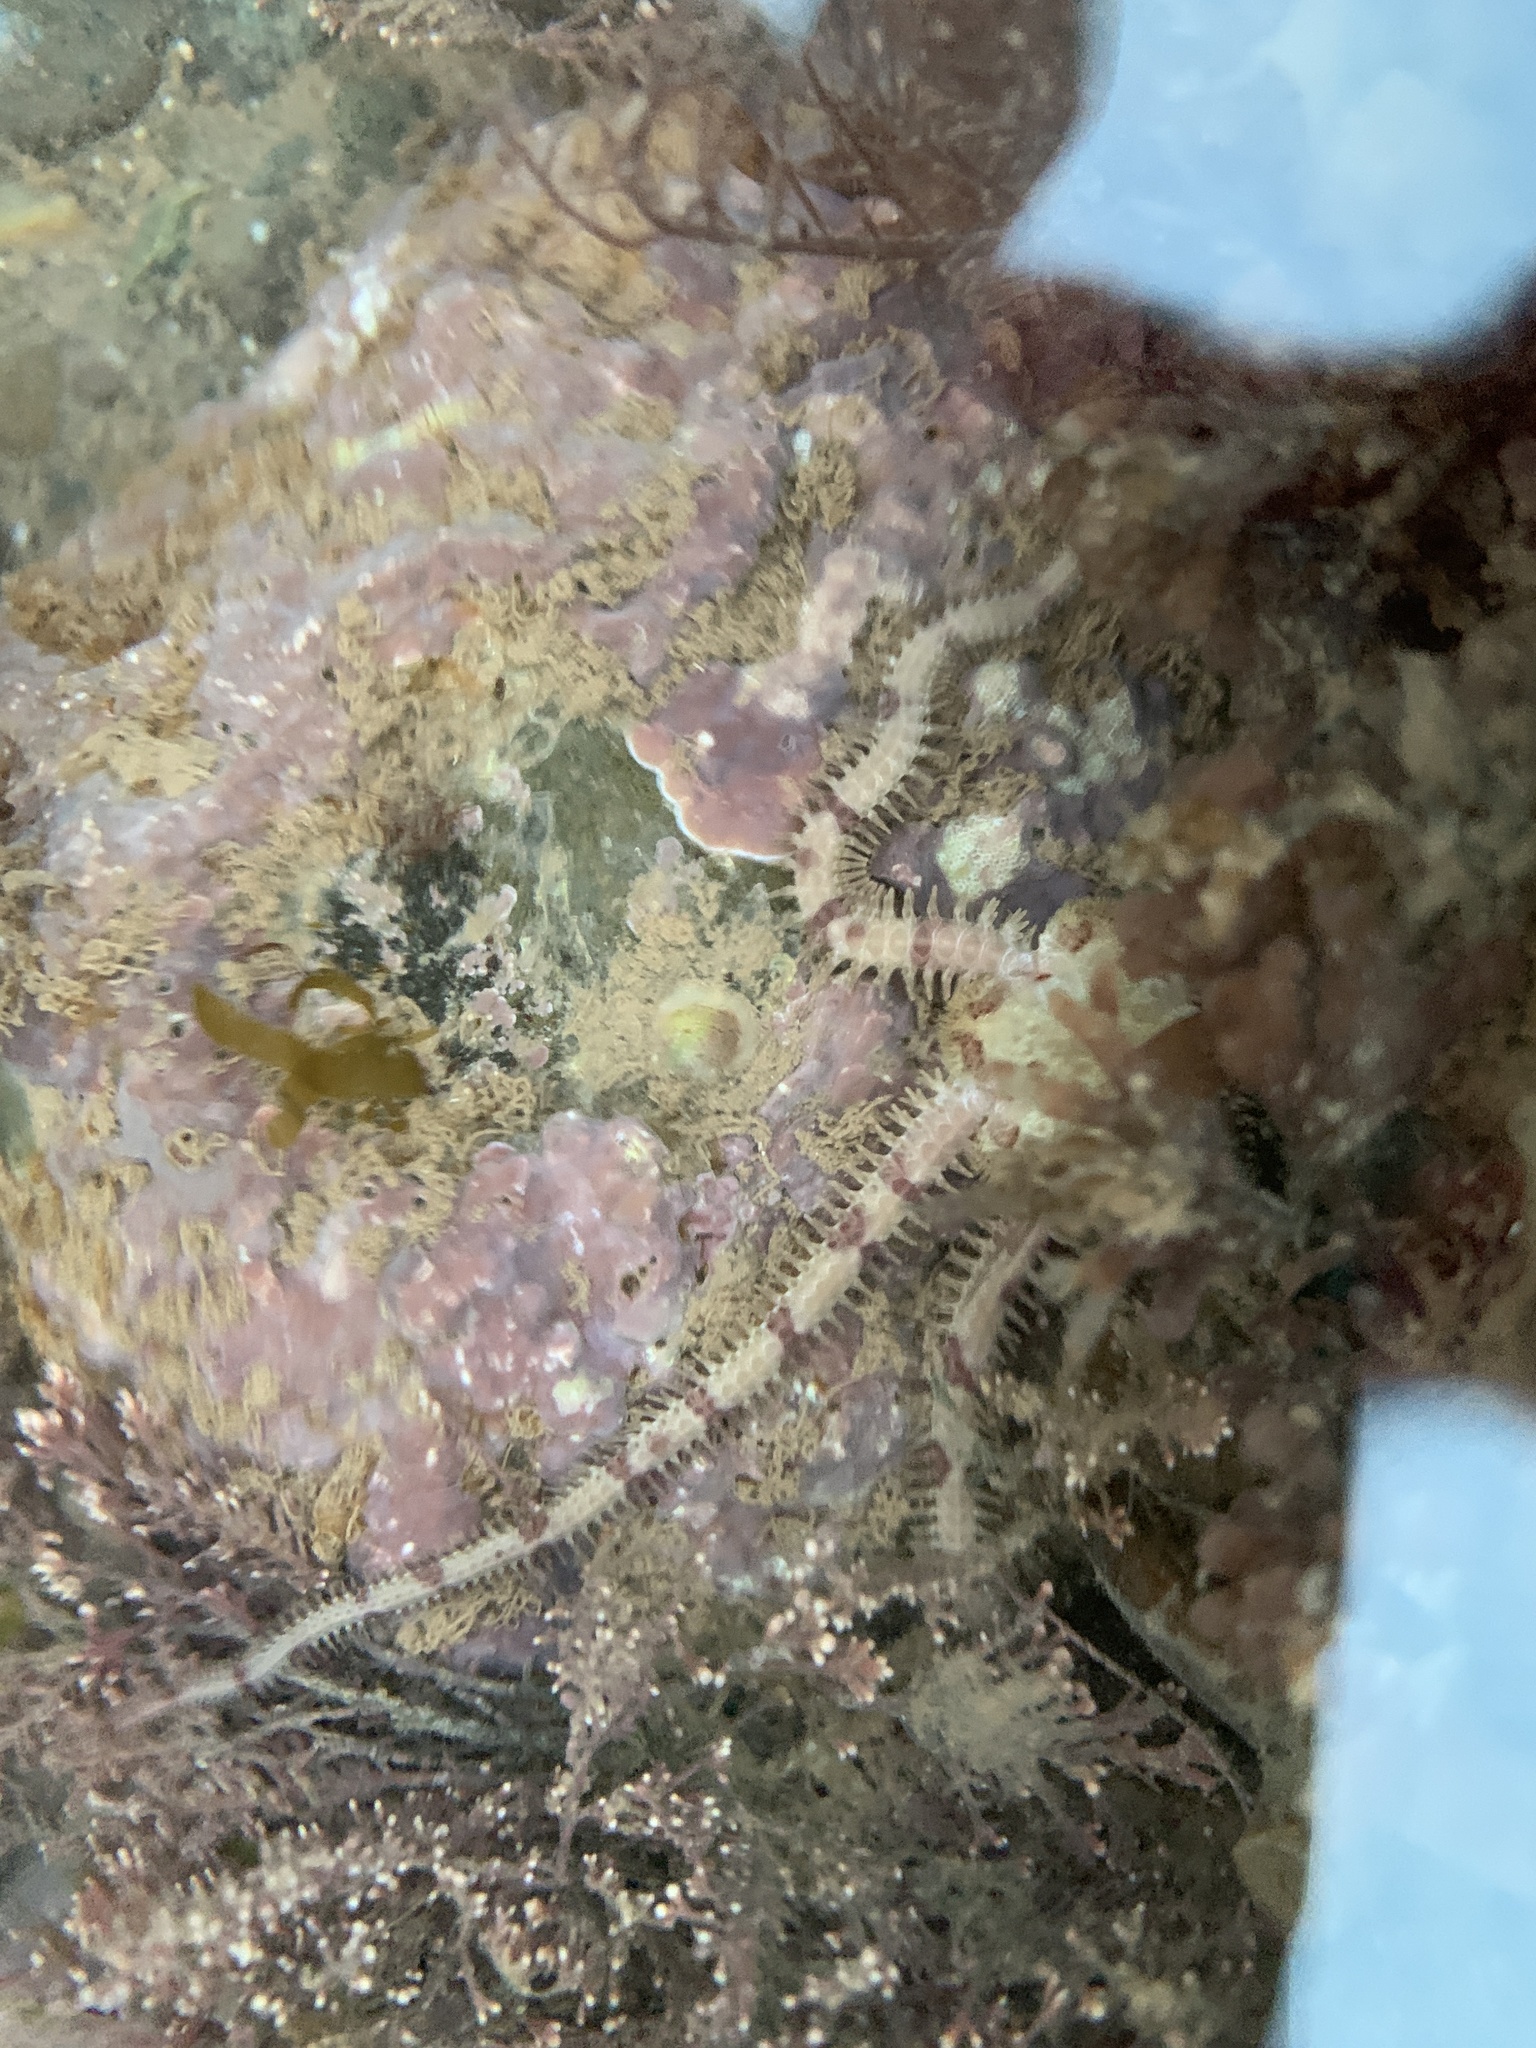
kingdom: Animalia
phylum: Echinodermata
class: Ophiuroidea
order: Amphilepidida
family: Ophiopholidae
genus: Ophiopholis
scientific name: Ophiopholis aculeata
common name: Crevice brittlestar
